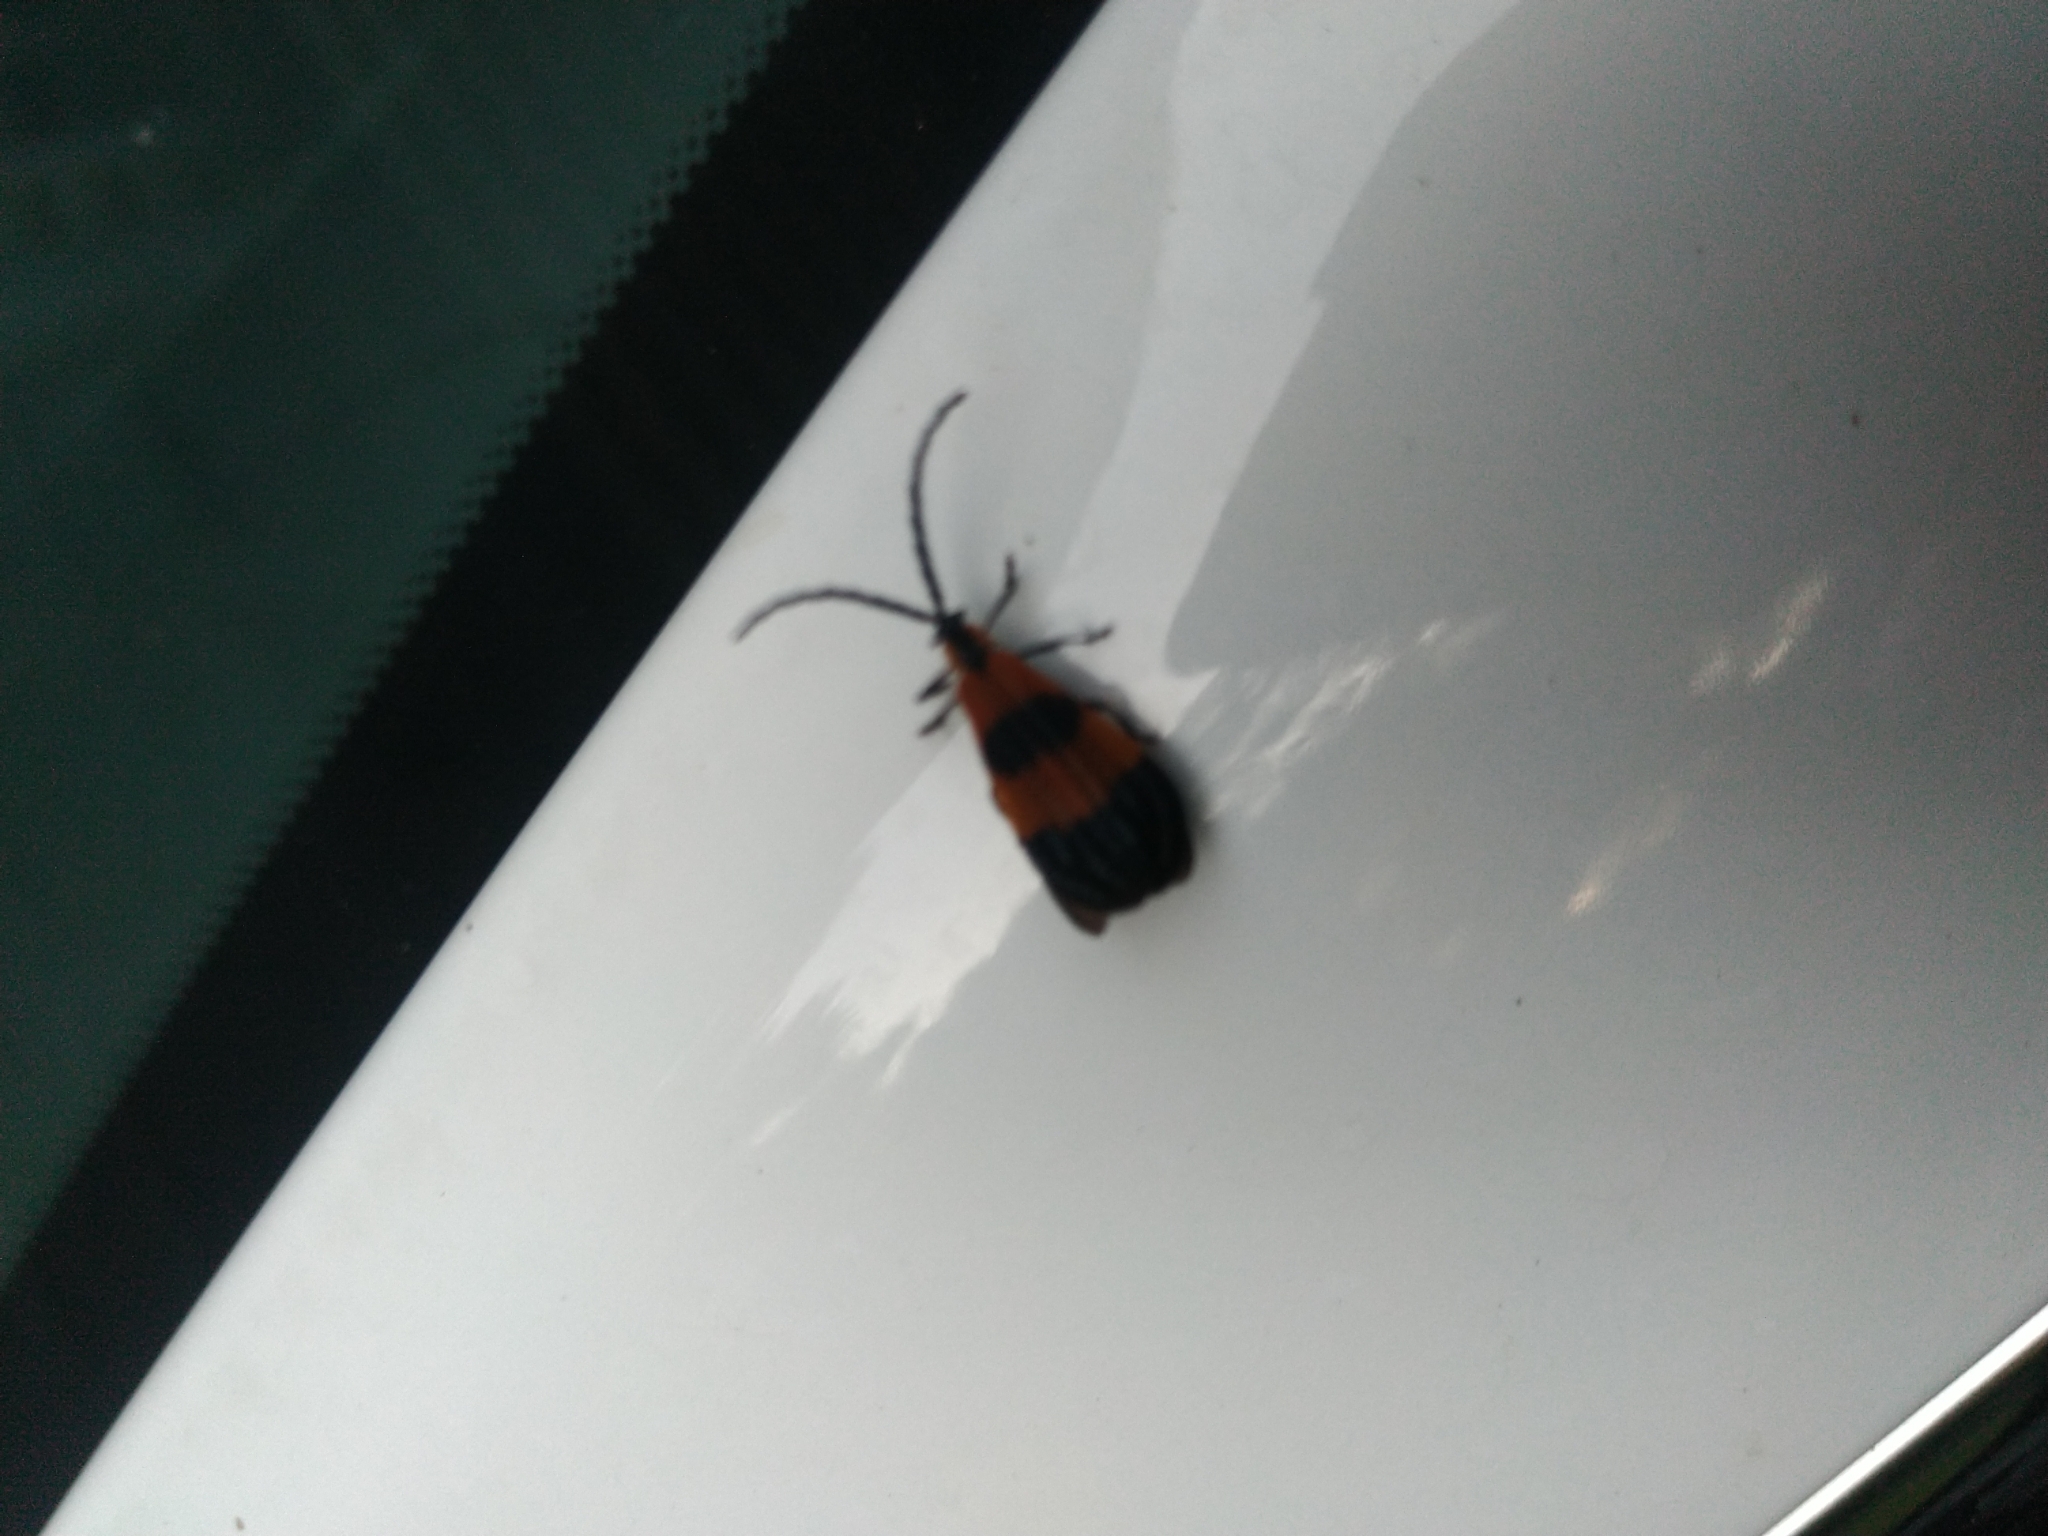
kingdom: Animalia
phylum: Arthropoda
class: Insecta
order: Coleoptera
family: Lycidae
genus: Calopteron
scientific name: Calopteron terminale
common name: End band net-winged beetle
